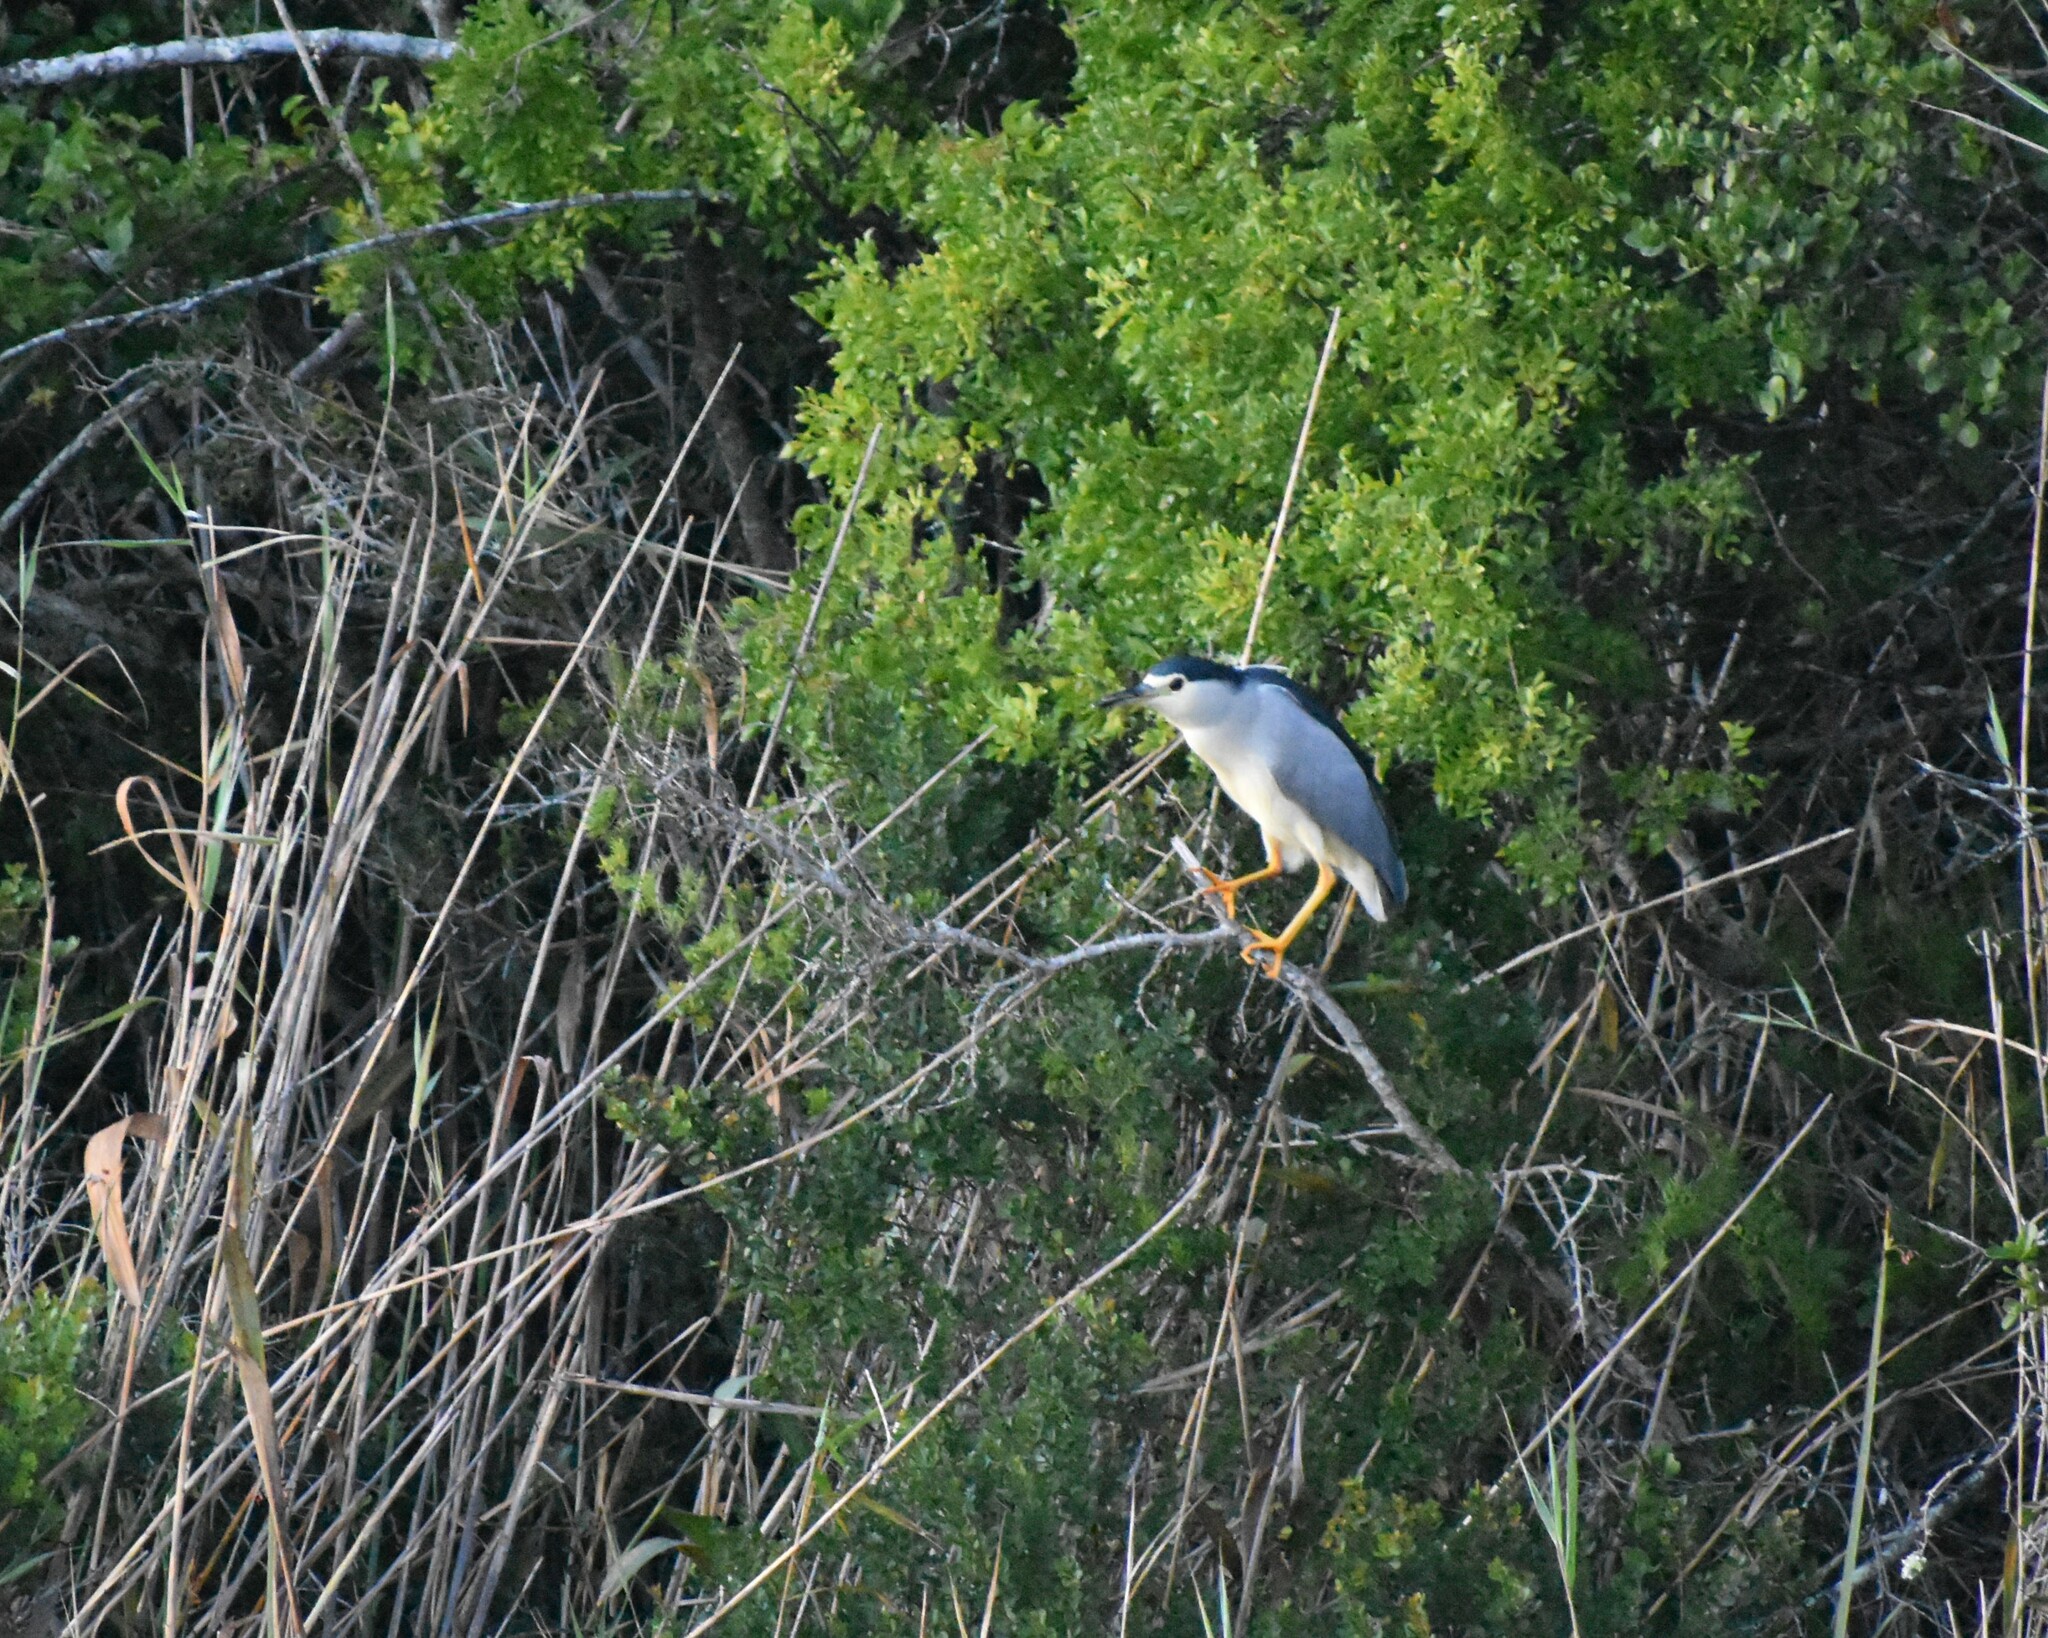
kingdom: Animalia
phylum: Chordata
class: Aves
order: Pelecaniformes
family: Ardeidae
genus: Nycticorax
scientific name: Nycticorax nycticorax
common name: Black-crowned night heron
